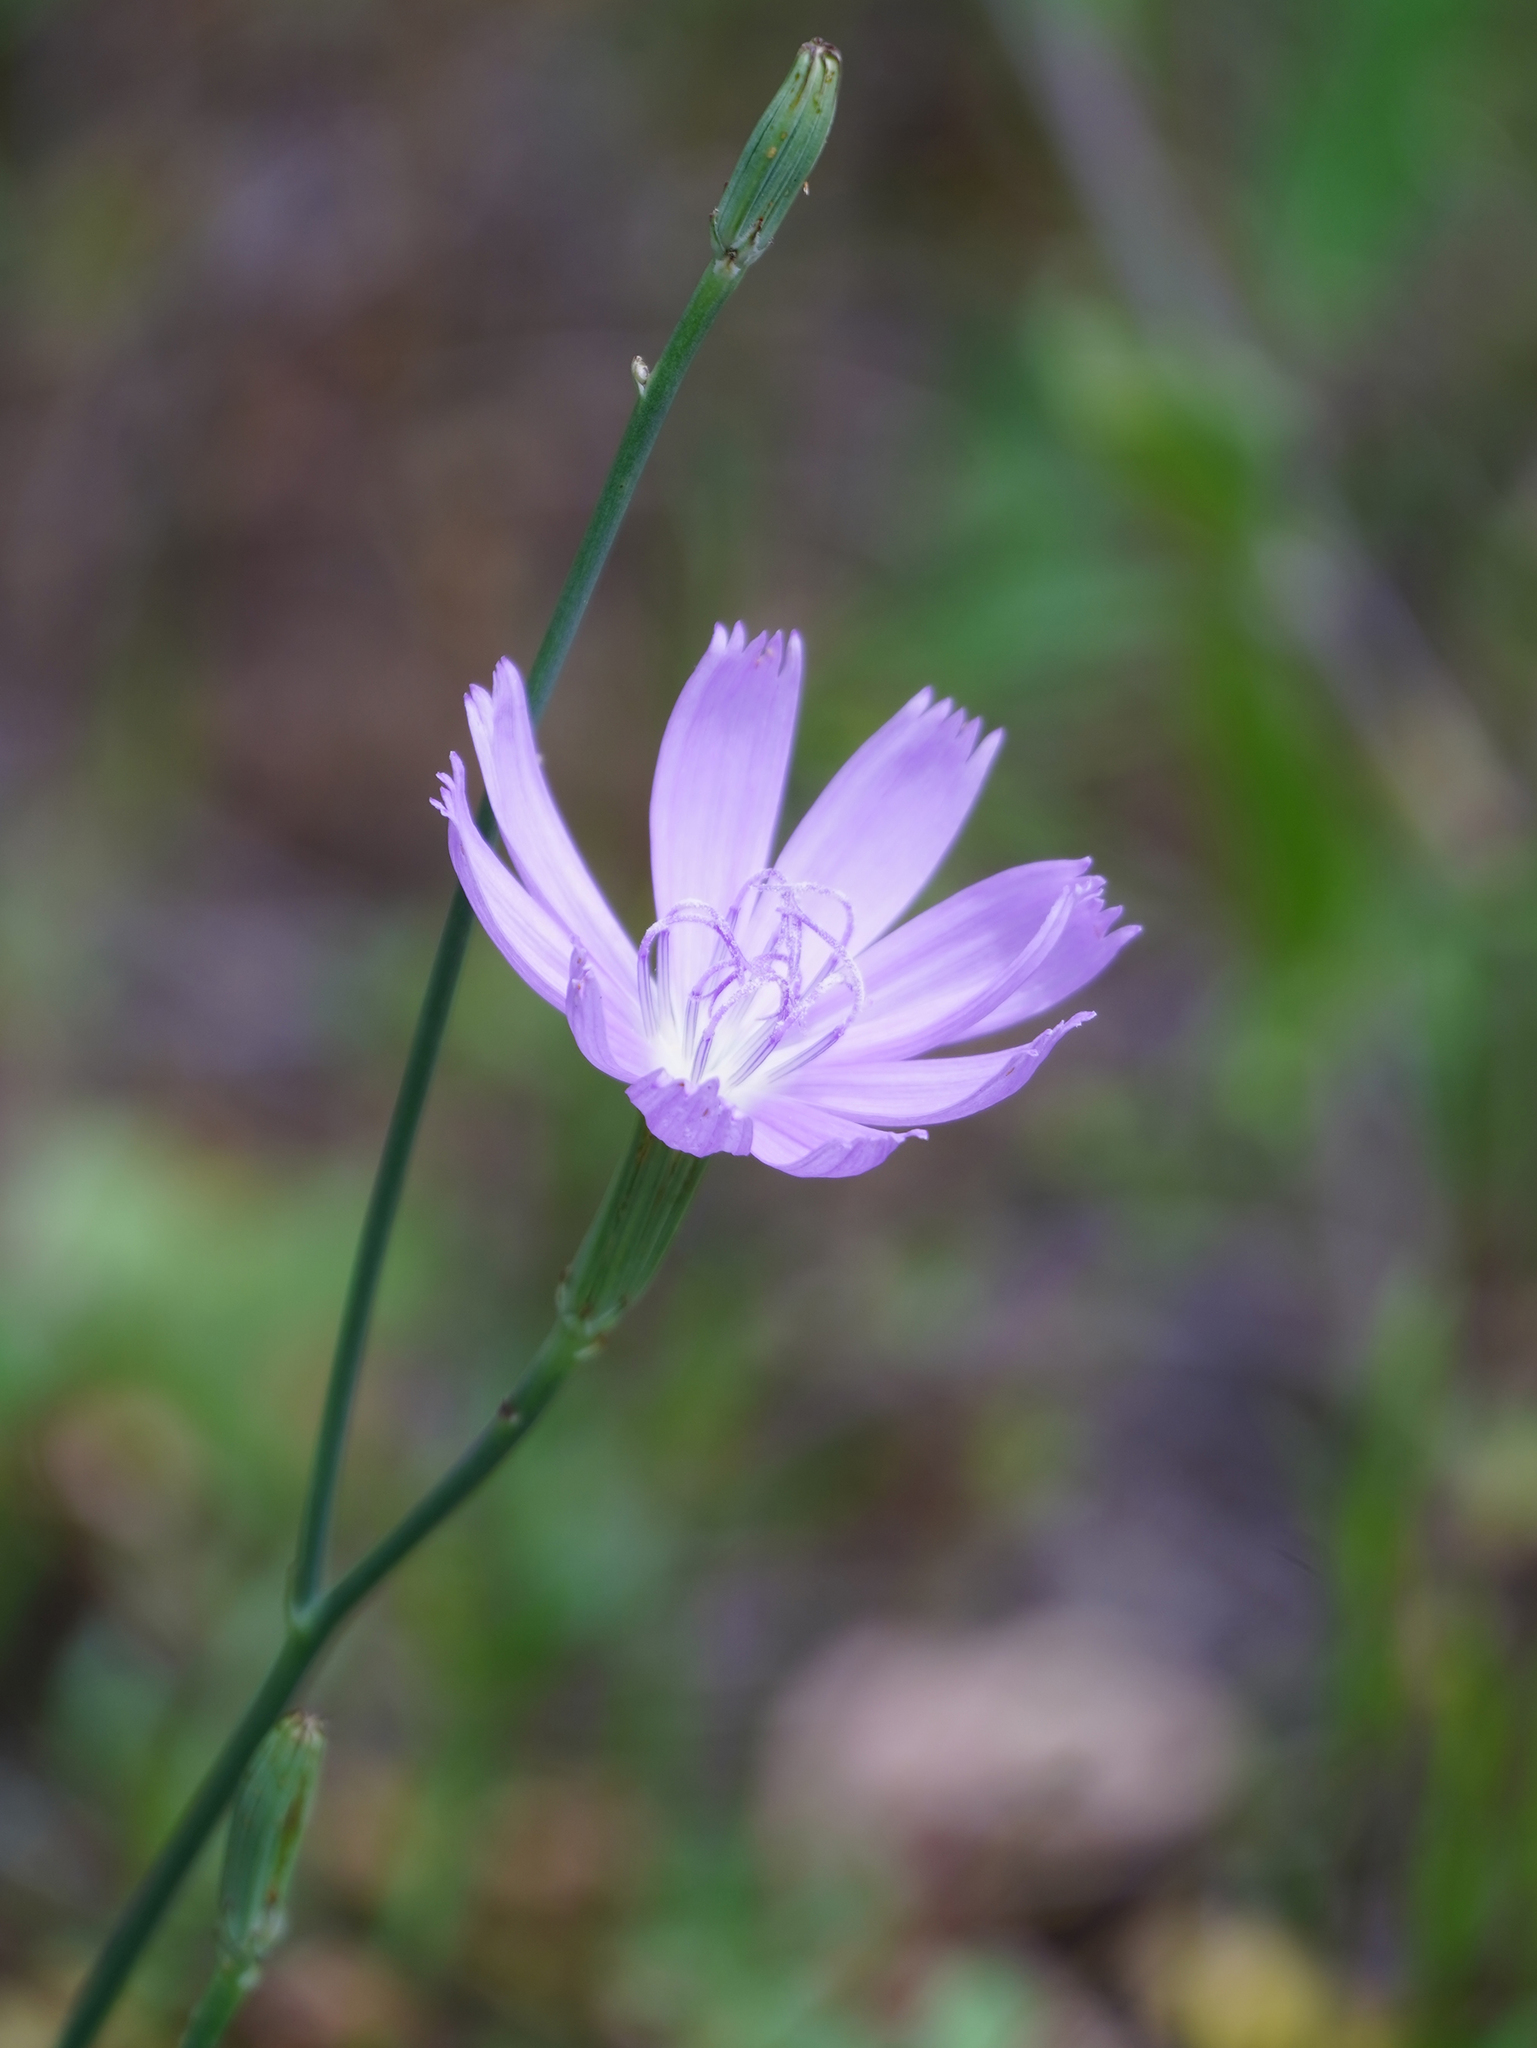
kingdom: Plantae
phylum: Tracheophyta
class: Magnoliopsida
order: Asterales
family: Asteraceae
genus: Lygodesmia
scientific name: Lygodesmia texana
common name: Texas skeleton-plant
